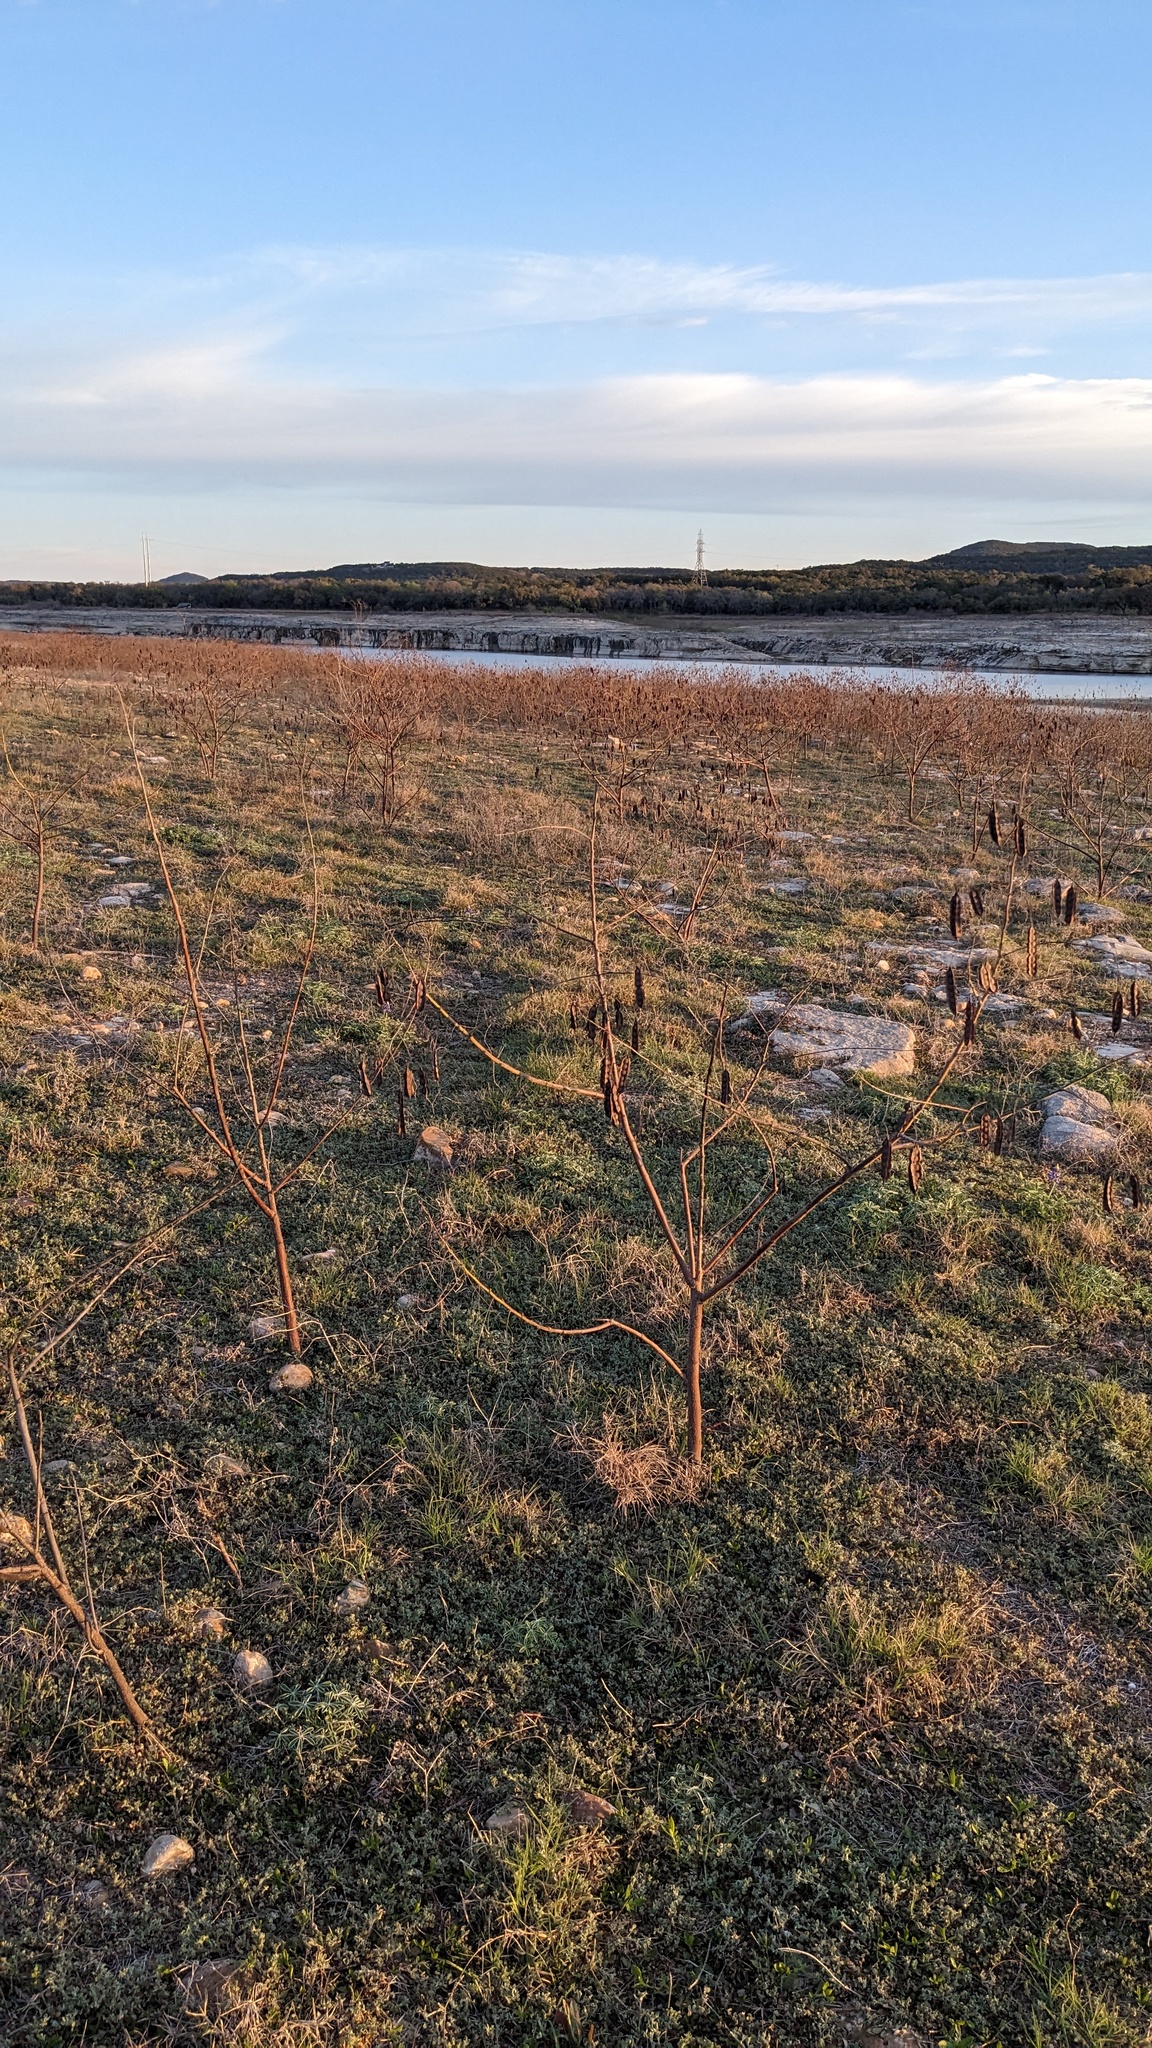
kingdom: Plantae
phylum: Tracheophyta
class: Magnoliopsida
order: Fabales
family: Fabaceae
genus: Sesbania
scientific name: Sesbania drummondii
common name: Poison-bean
